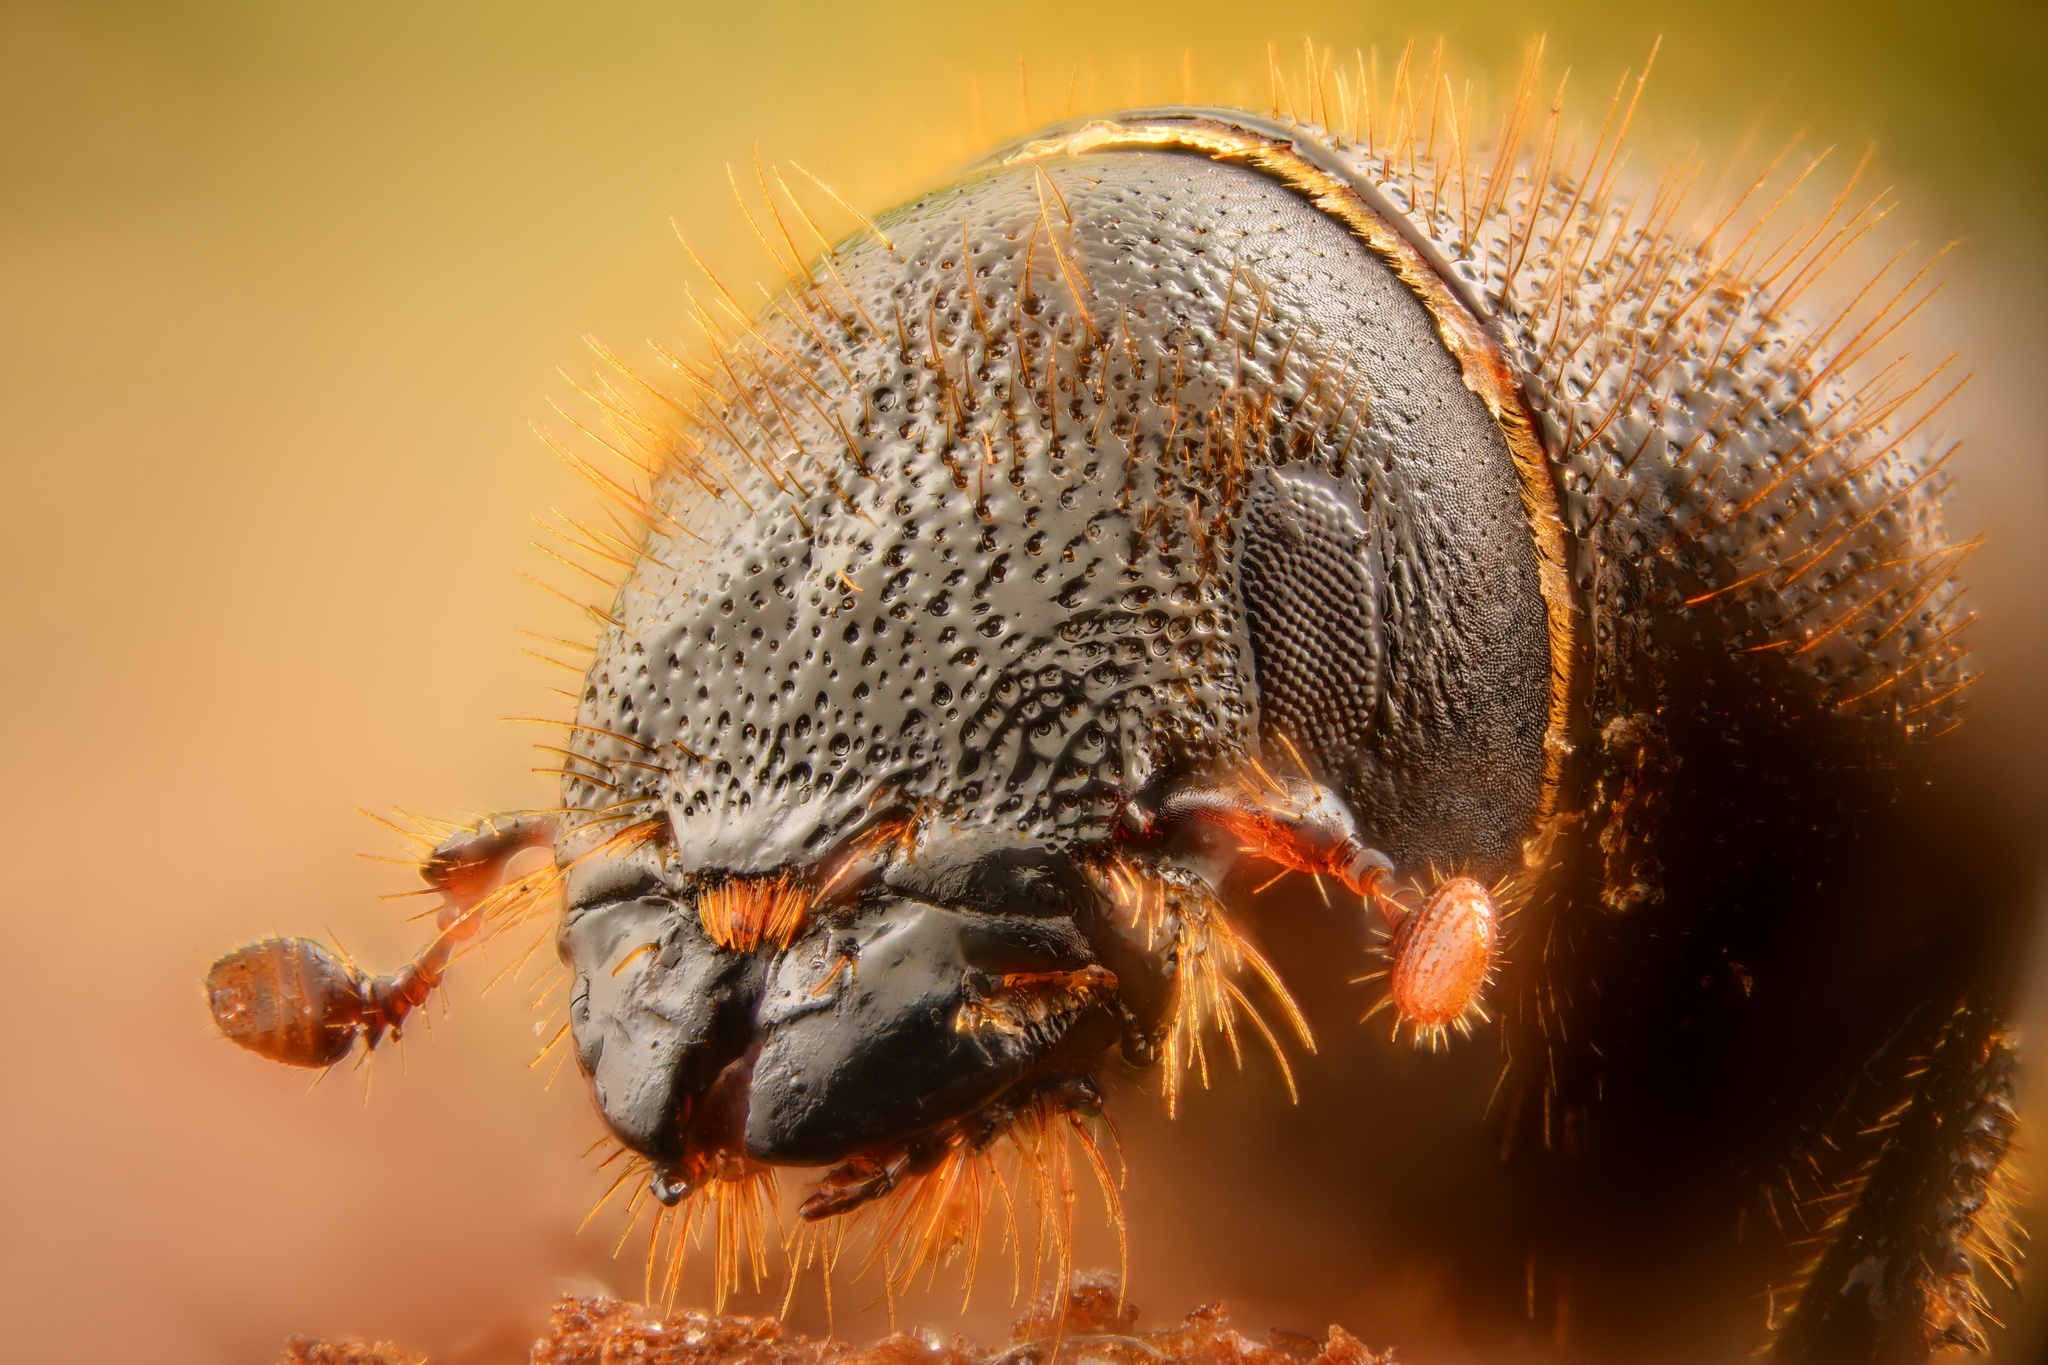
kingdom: Animalia
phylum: Arthropoda
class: Insecta
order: Coleoptera
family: Curculionidae
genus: Dendroctonus
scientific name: Dendroctonus micans
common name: Great spruce bark beetle
